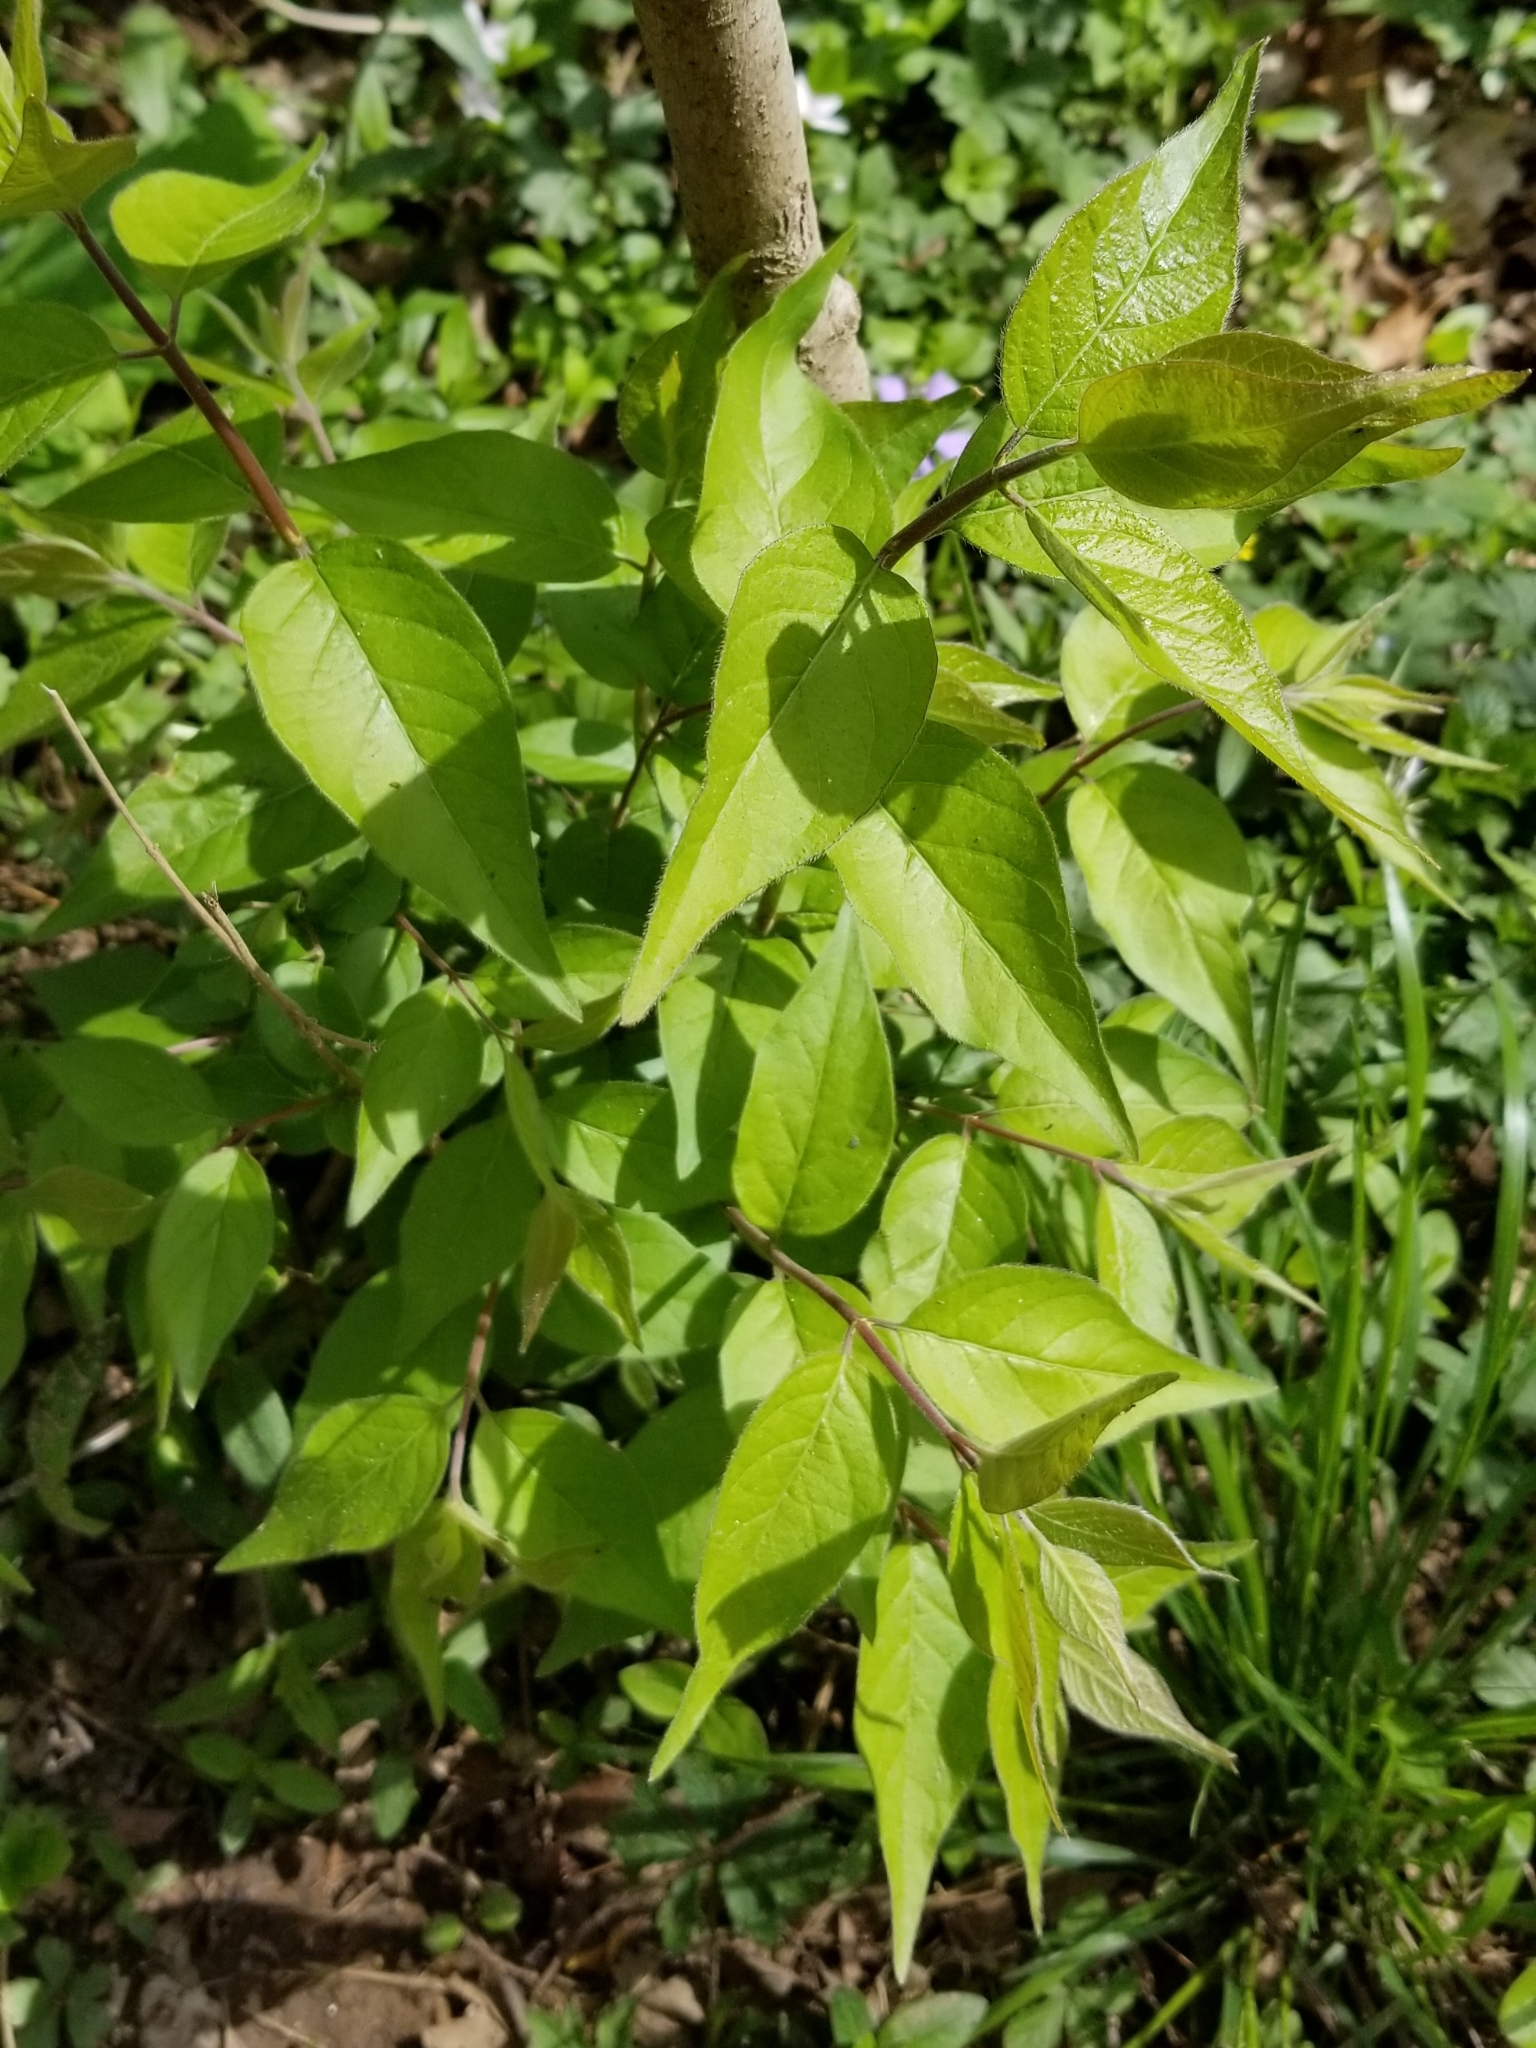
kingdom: Plantae
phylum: Tracheophyta
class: Magnoliopsida
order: Dipsacales
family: Caprifoliaceae
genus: Lonicera
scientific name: Lonicera maackii
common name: Amur honeysuckle
